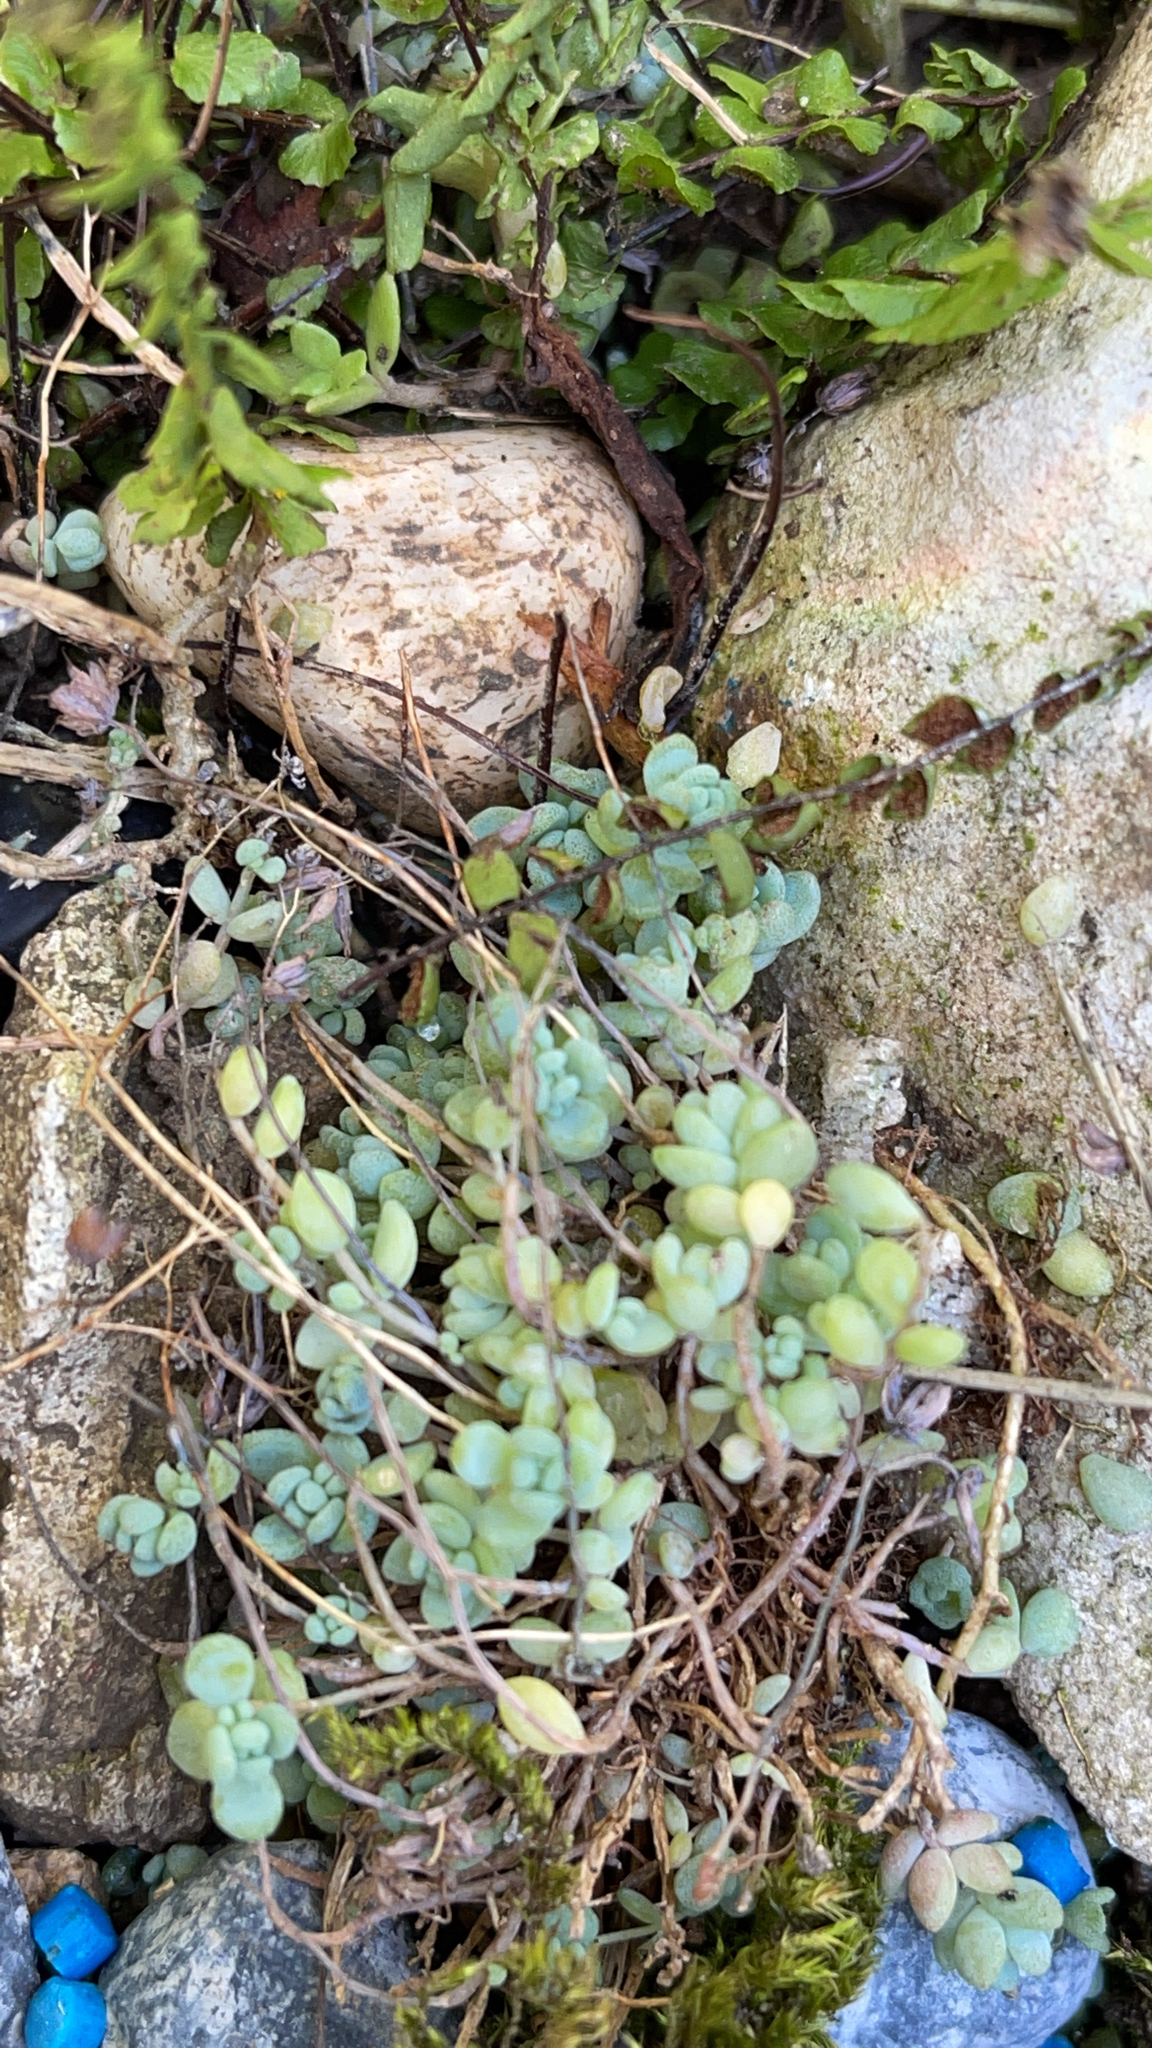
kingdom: Plantae
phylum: Tracheophyta
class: Magnoliopsida
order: Saxifragales
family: Crassulaceae
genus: Sedum
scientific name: Sedum dasyphyllum
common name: Thick-leaf stonecrop
